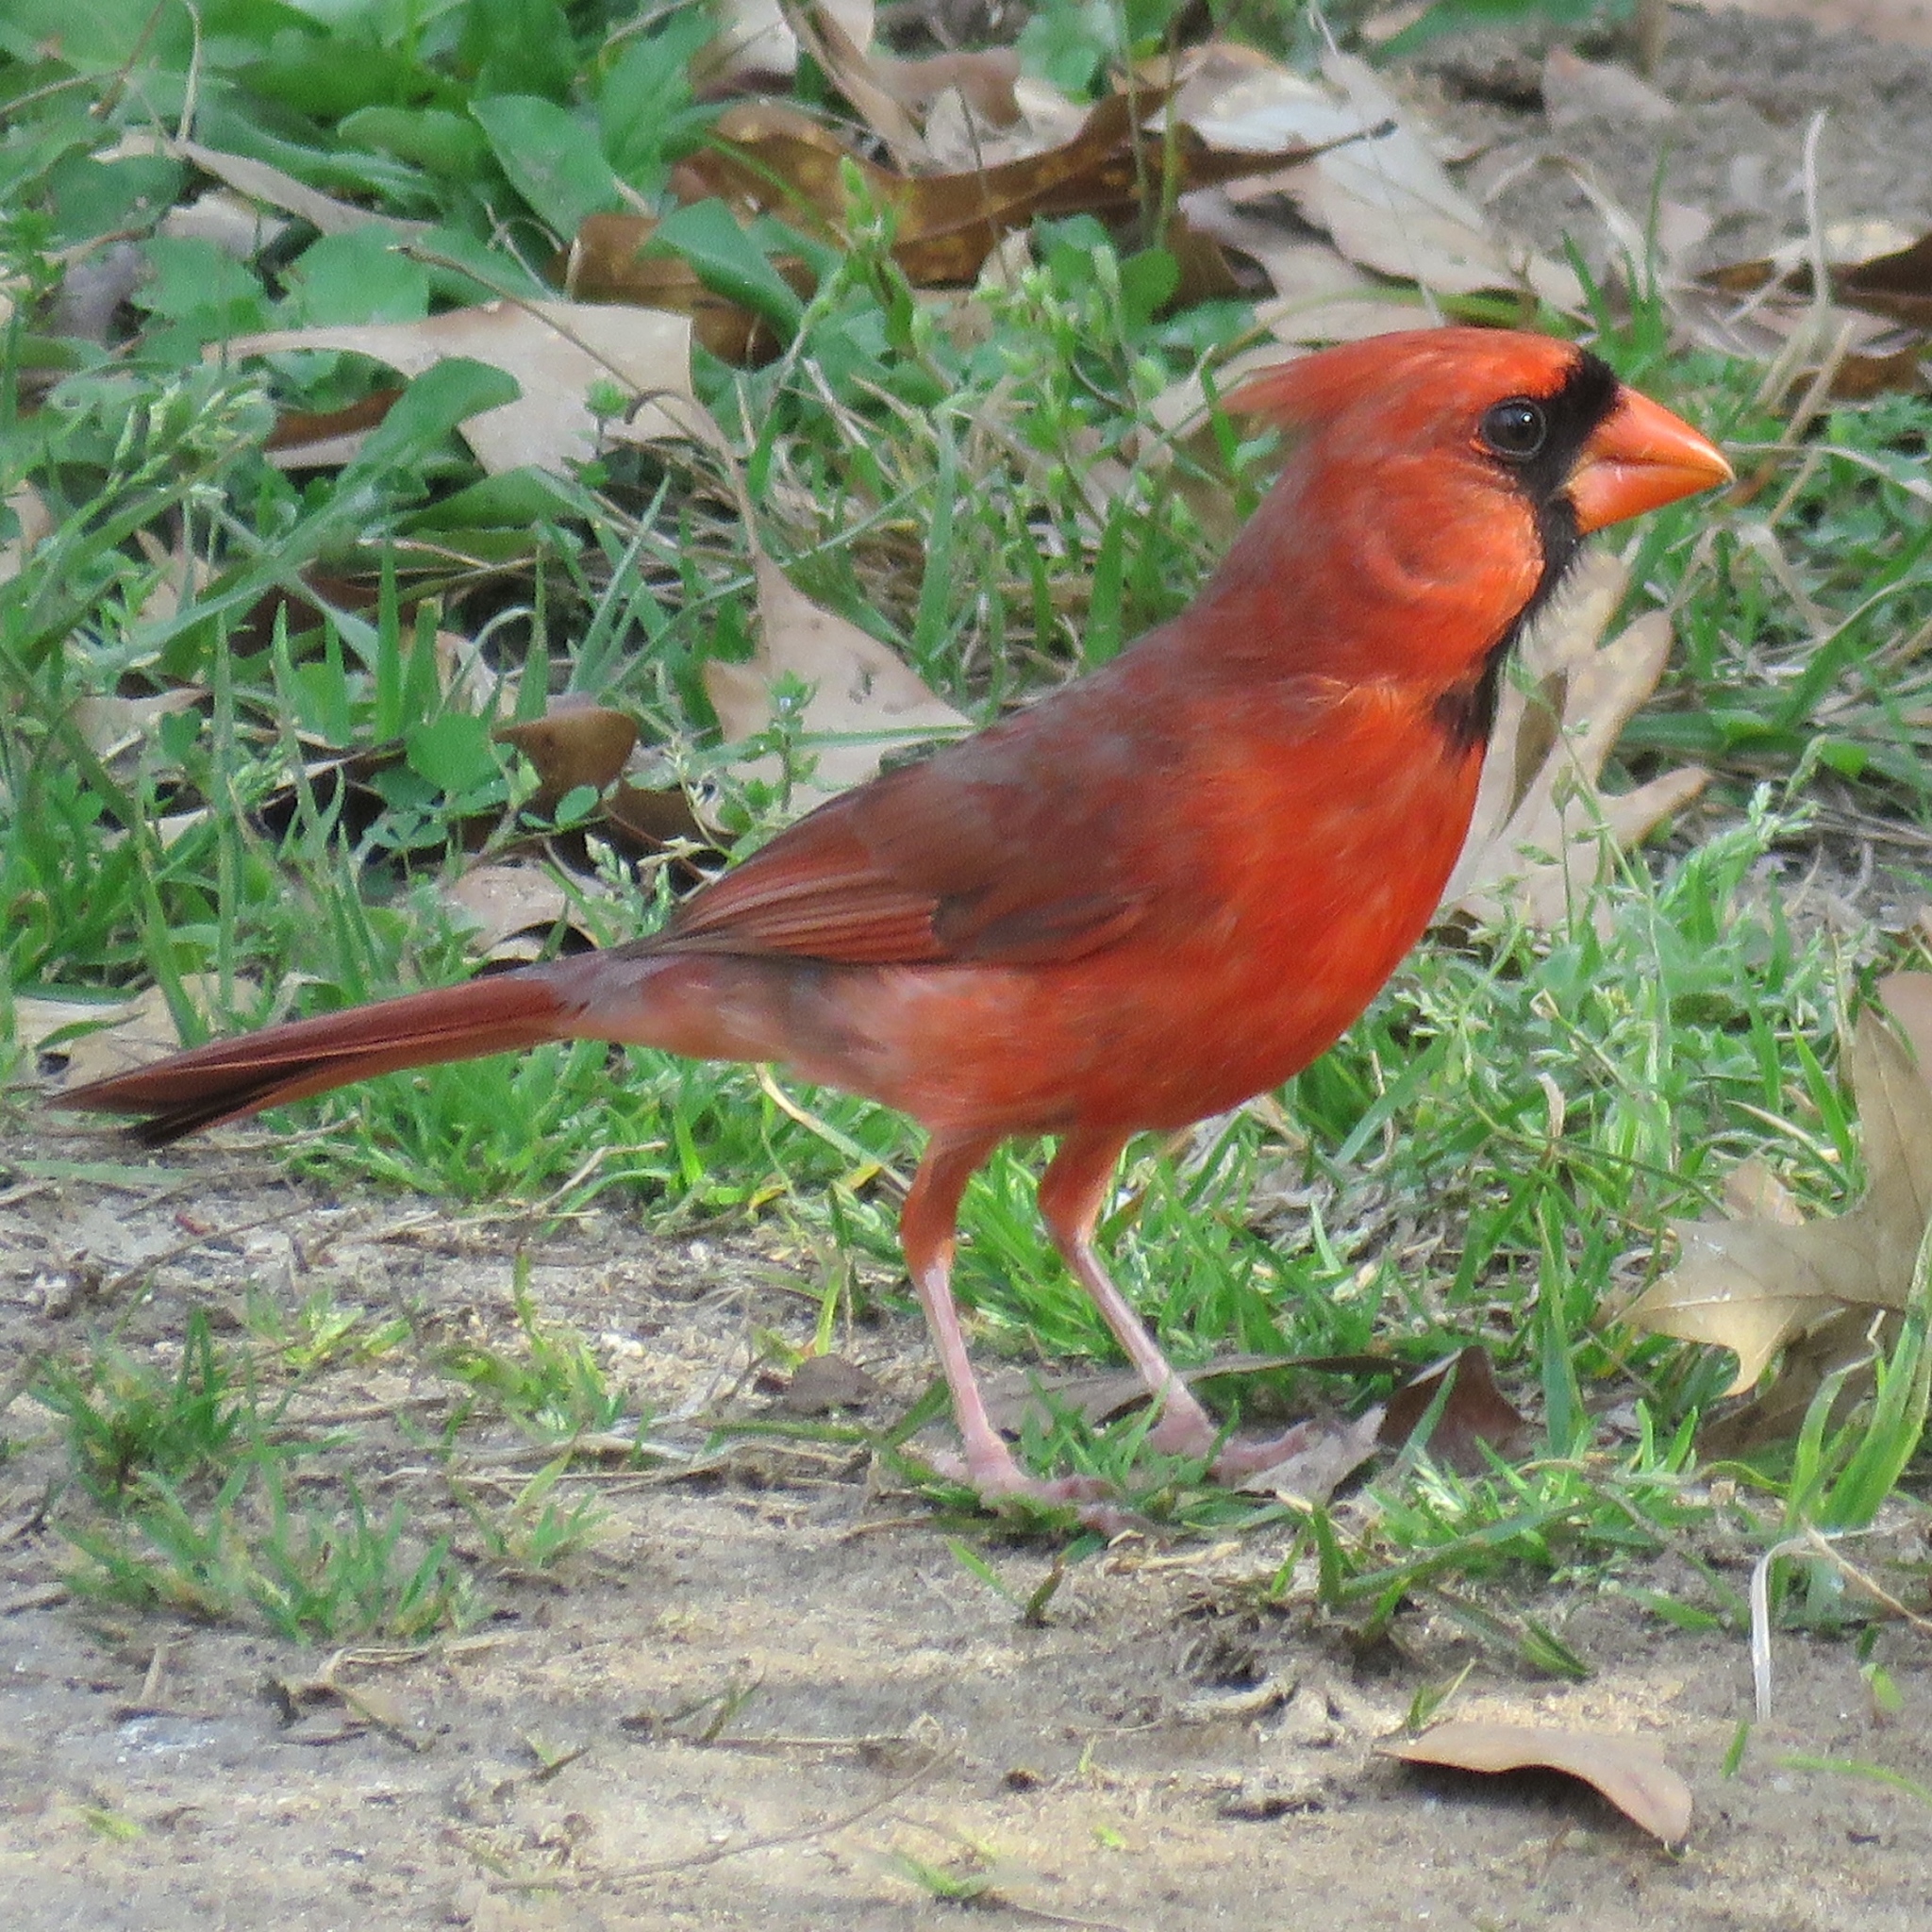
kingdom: Animalia
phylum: Chordata
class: Aves
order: Passeriformes
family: Cardinalidae
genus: Cardinalis
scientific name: Cardinalis cardinalis
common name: Northern cardinal
